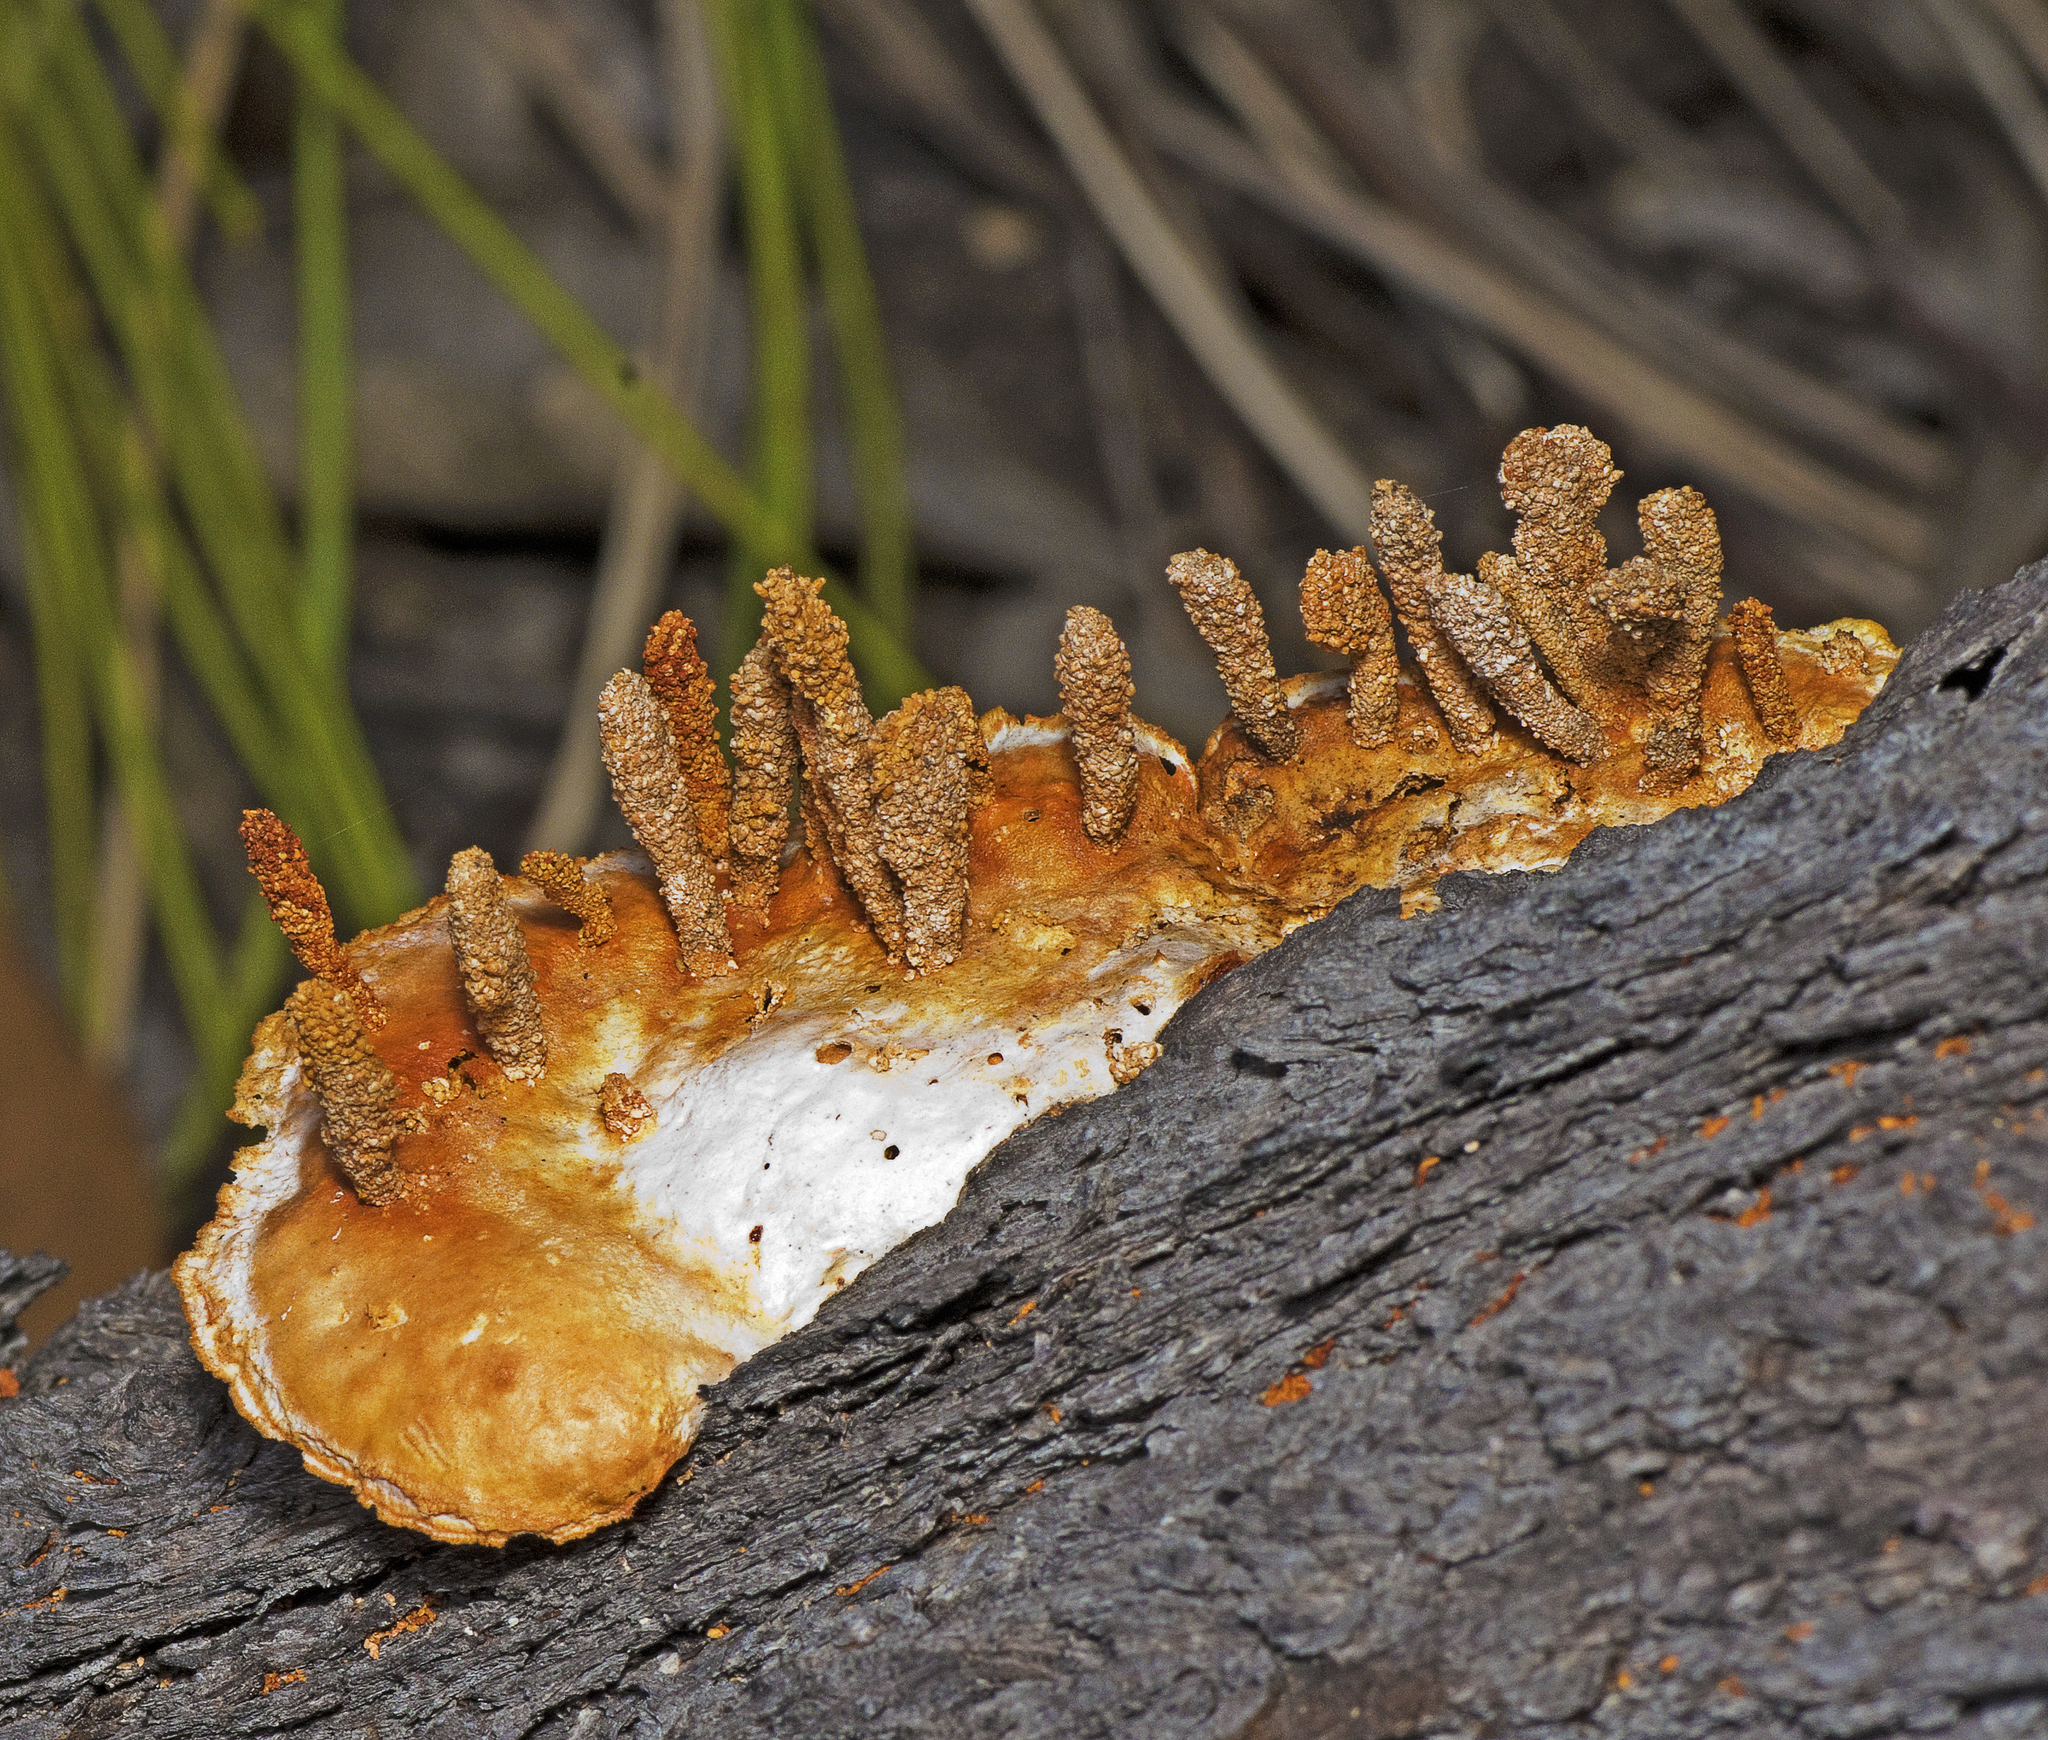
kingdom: Fungi
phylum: Basidiomycota
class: Agaricomycetes
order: Polyporales
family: Polyporaceae
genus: Trametes
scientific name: Trametes coccinea
